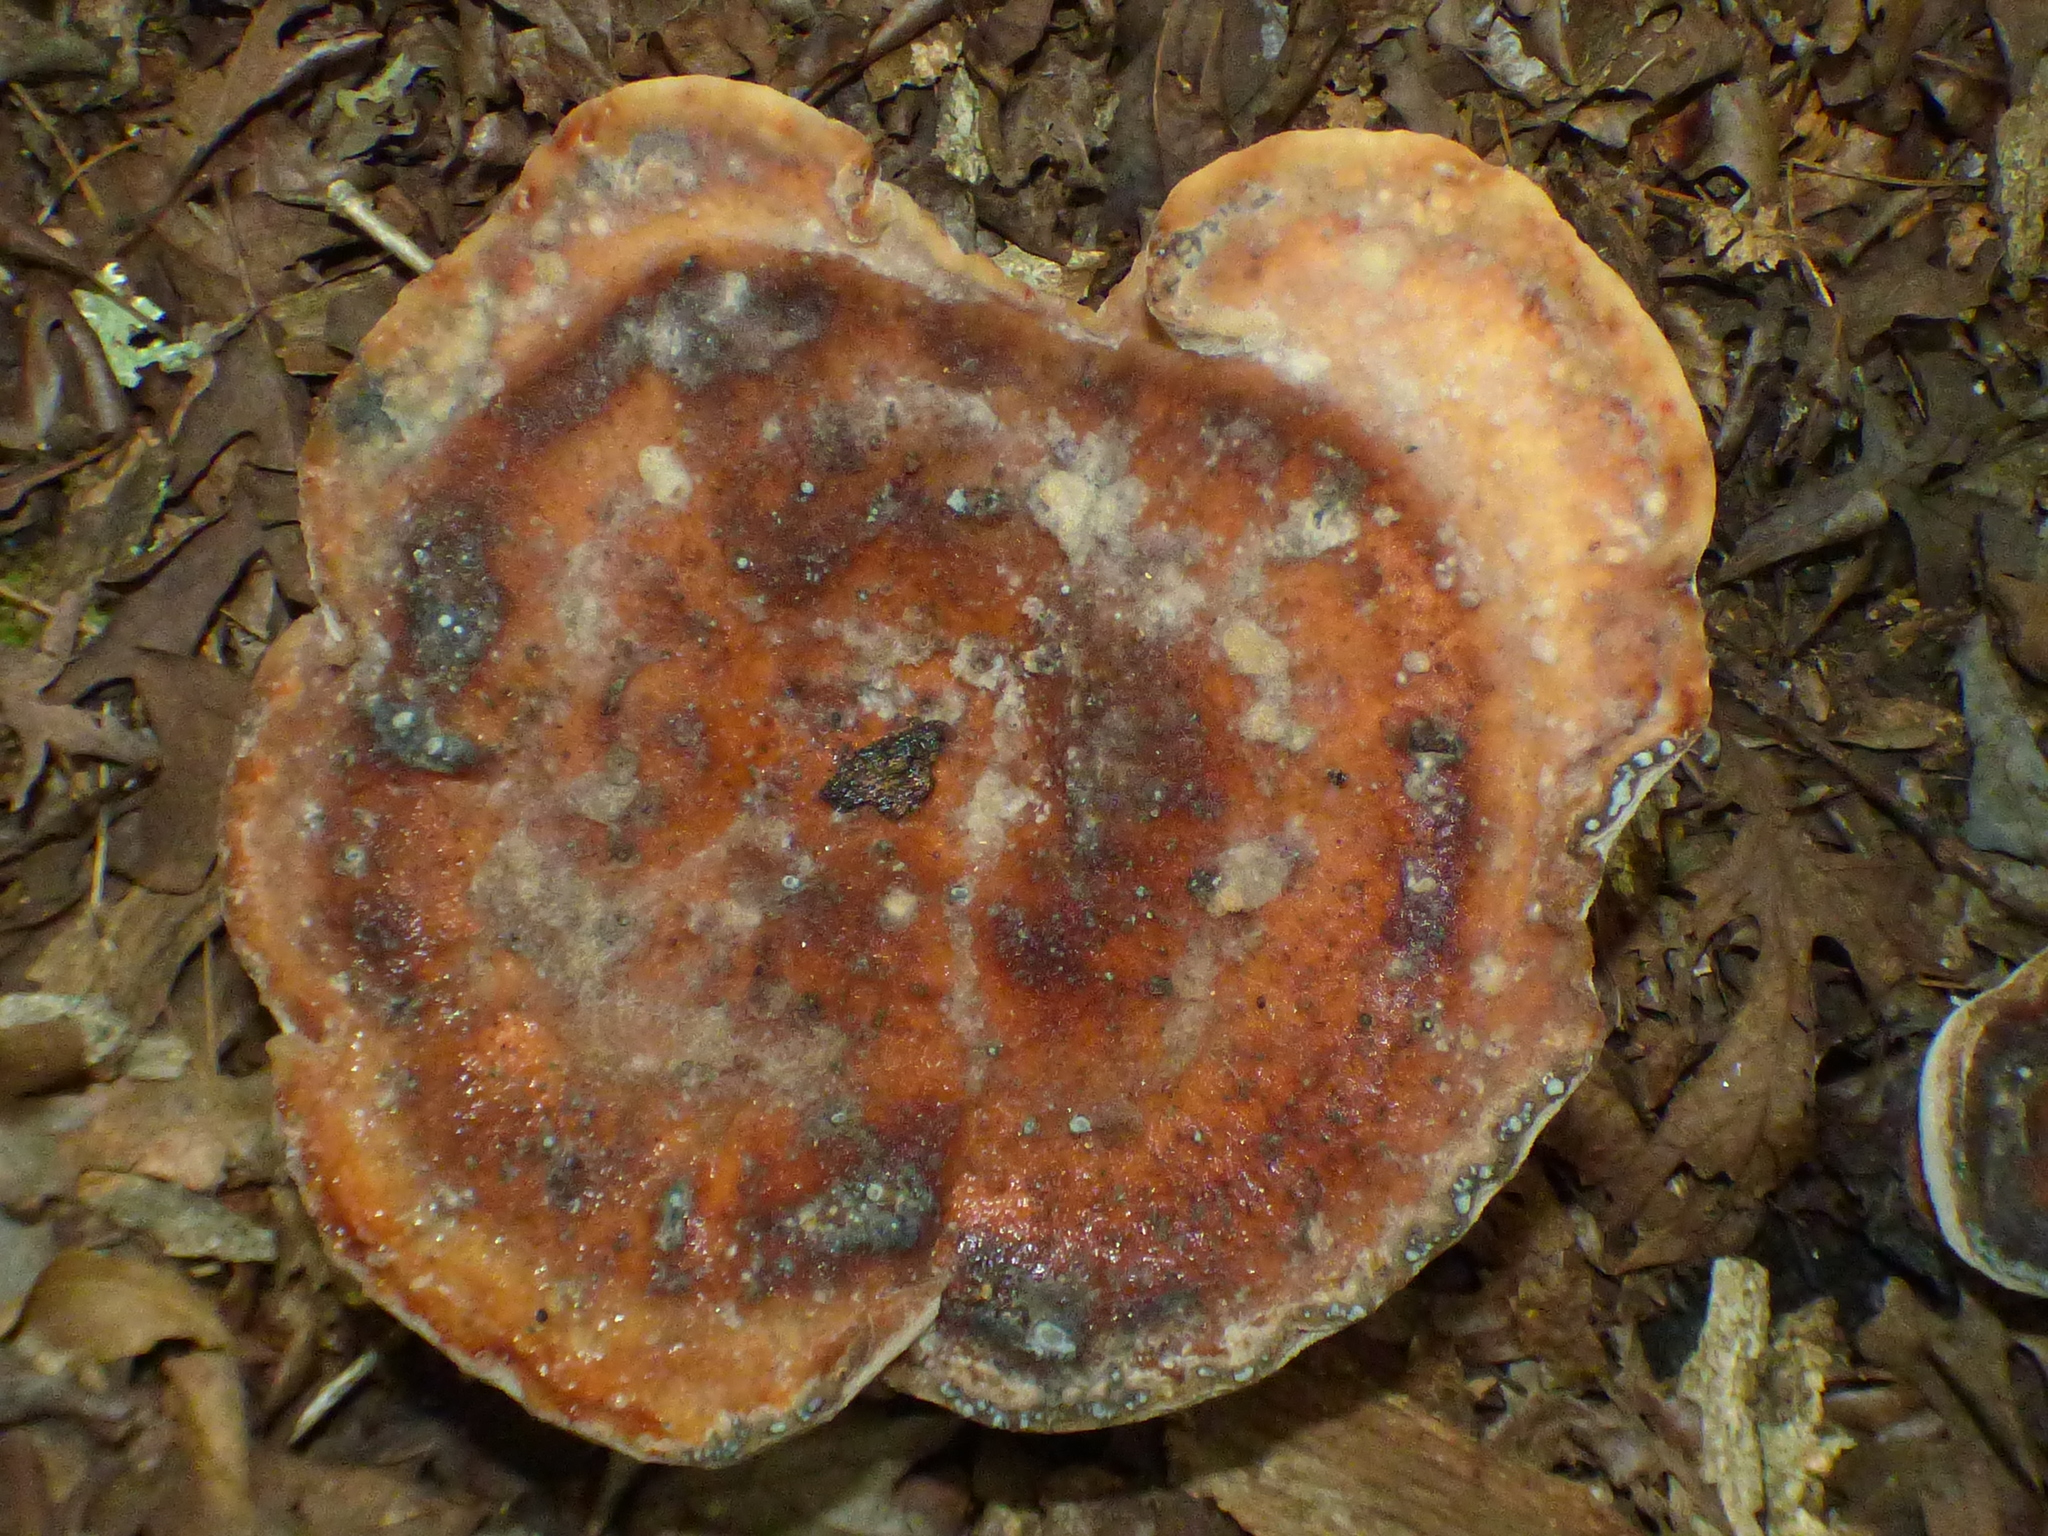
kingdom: Fungi
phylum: Basidiomycota
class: Agaricomycetes
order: Polyporales
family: Laetiporaceae
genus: Berkcurtia
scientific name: Berkcurtia persicina
